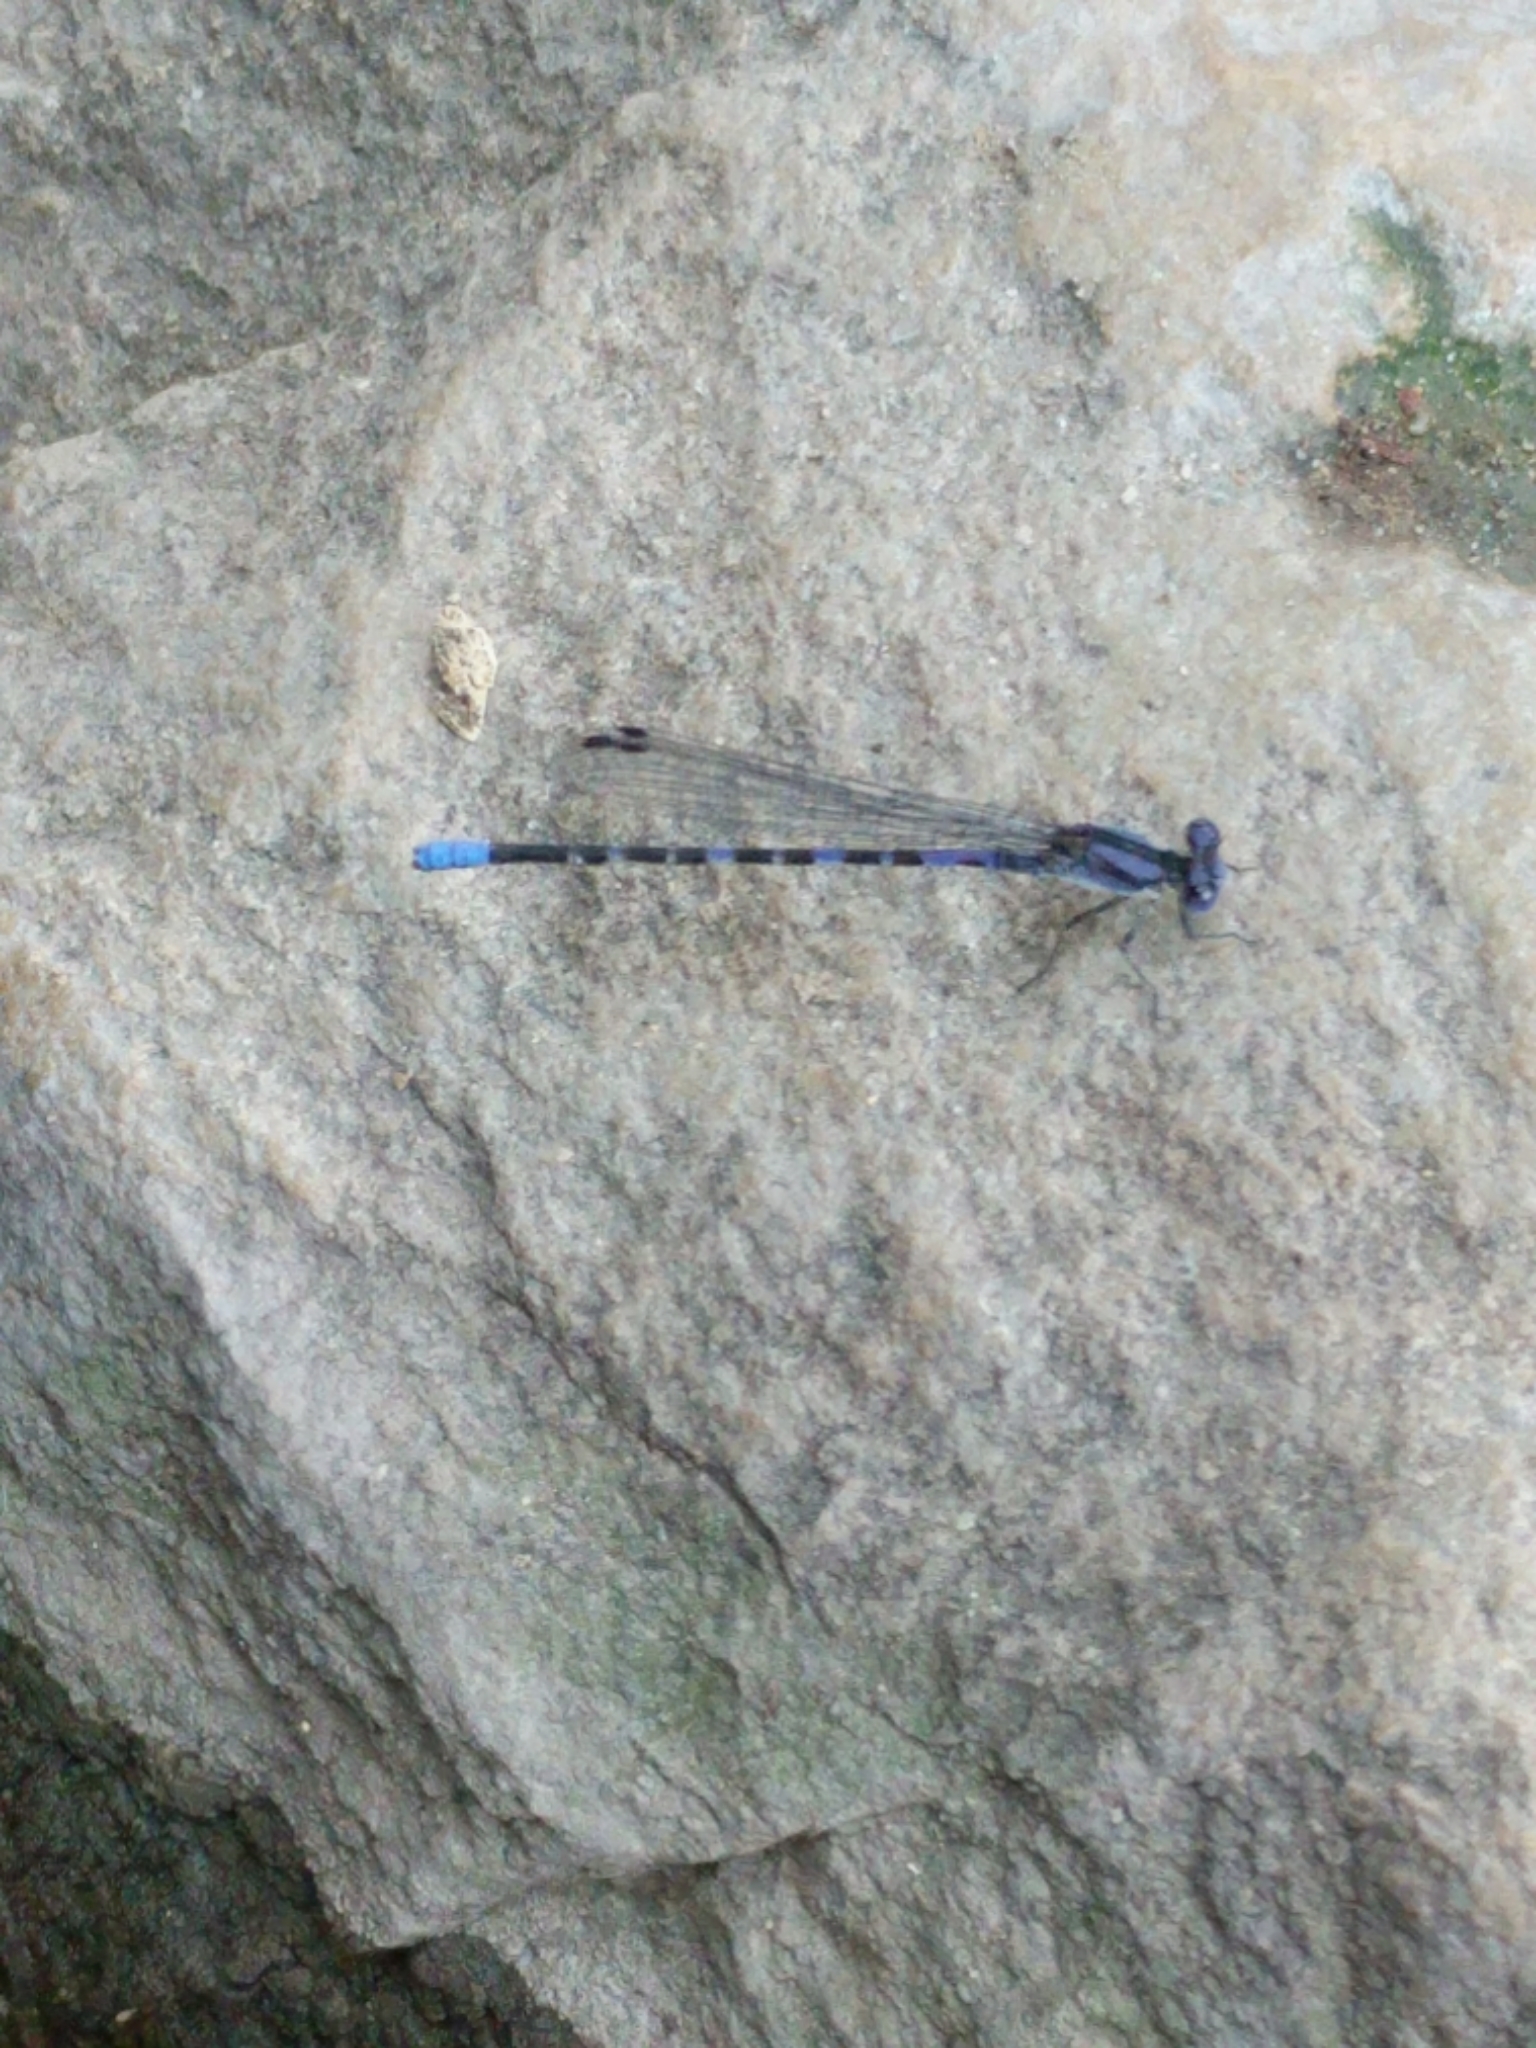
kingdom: Animalia
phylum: Arthropoda
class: Insecta
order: Odonata
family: Coenagrionidae
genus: Argia
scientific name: Argia immunda
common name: Kiowa dancer
